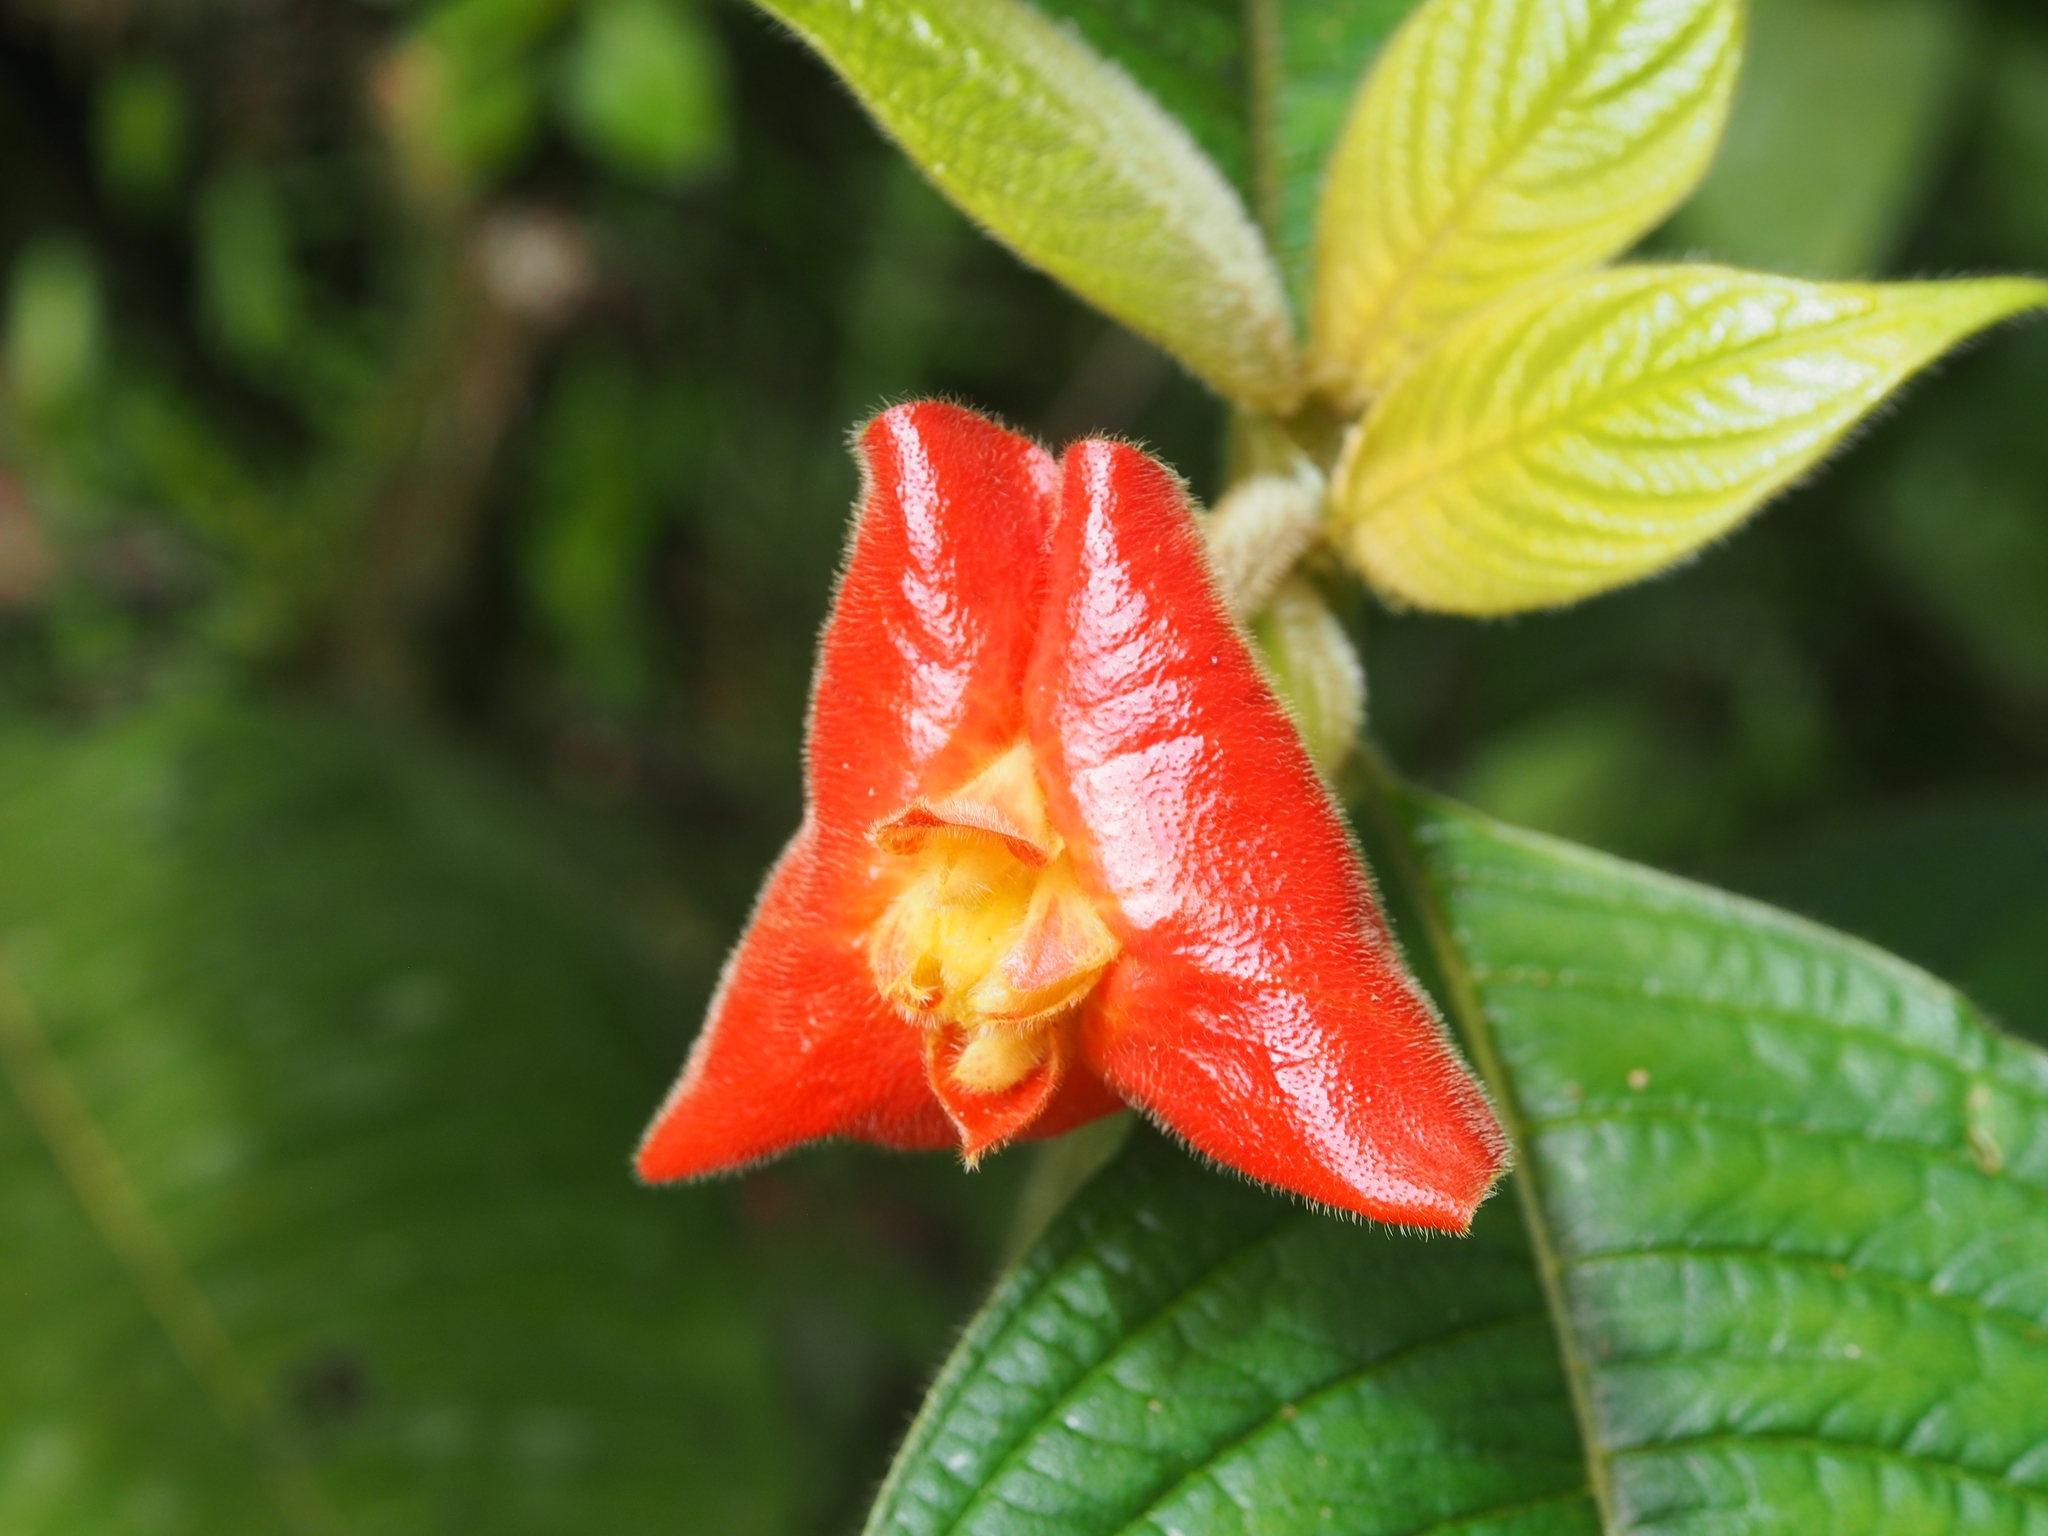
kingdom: Plantae
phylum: Tracheophyta
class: Magnoliopsida
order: Gentianales
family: Rubiaceae
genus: Palicourea
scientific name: Palicourea tomentosa
